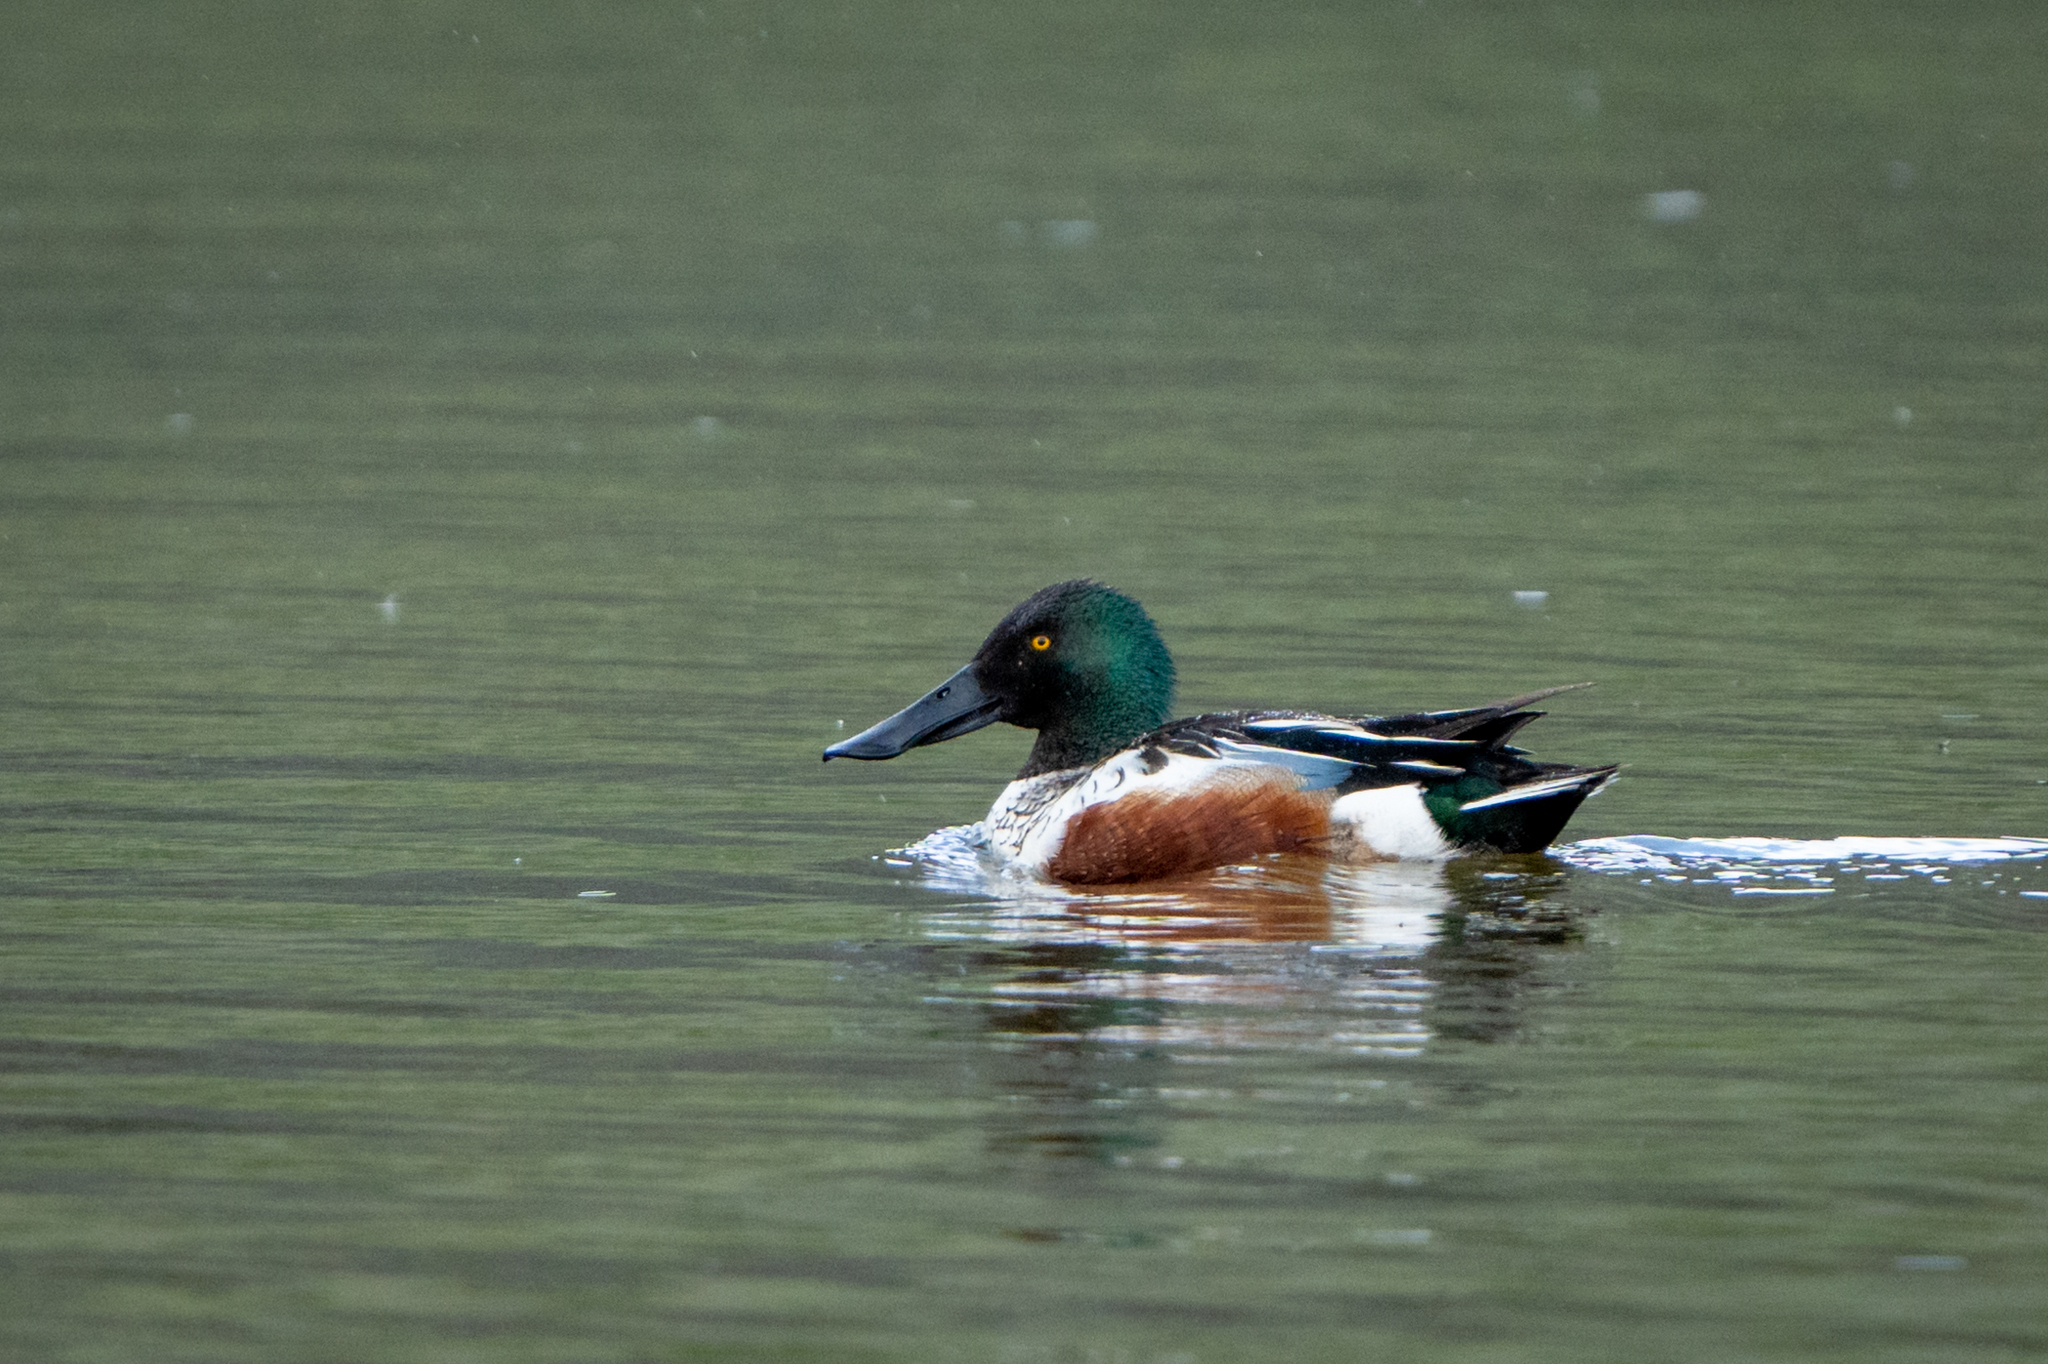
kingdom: Animalia
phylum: Chordata
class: Aves
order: Anseriformes
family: Anatidae
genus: Spatula
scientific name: Spatula clypeata
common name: Northern shoveler
